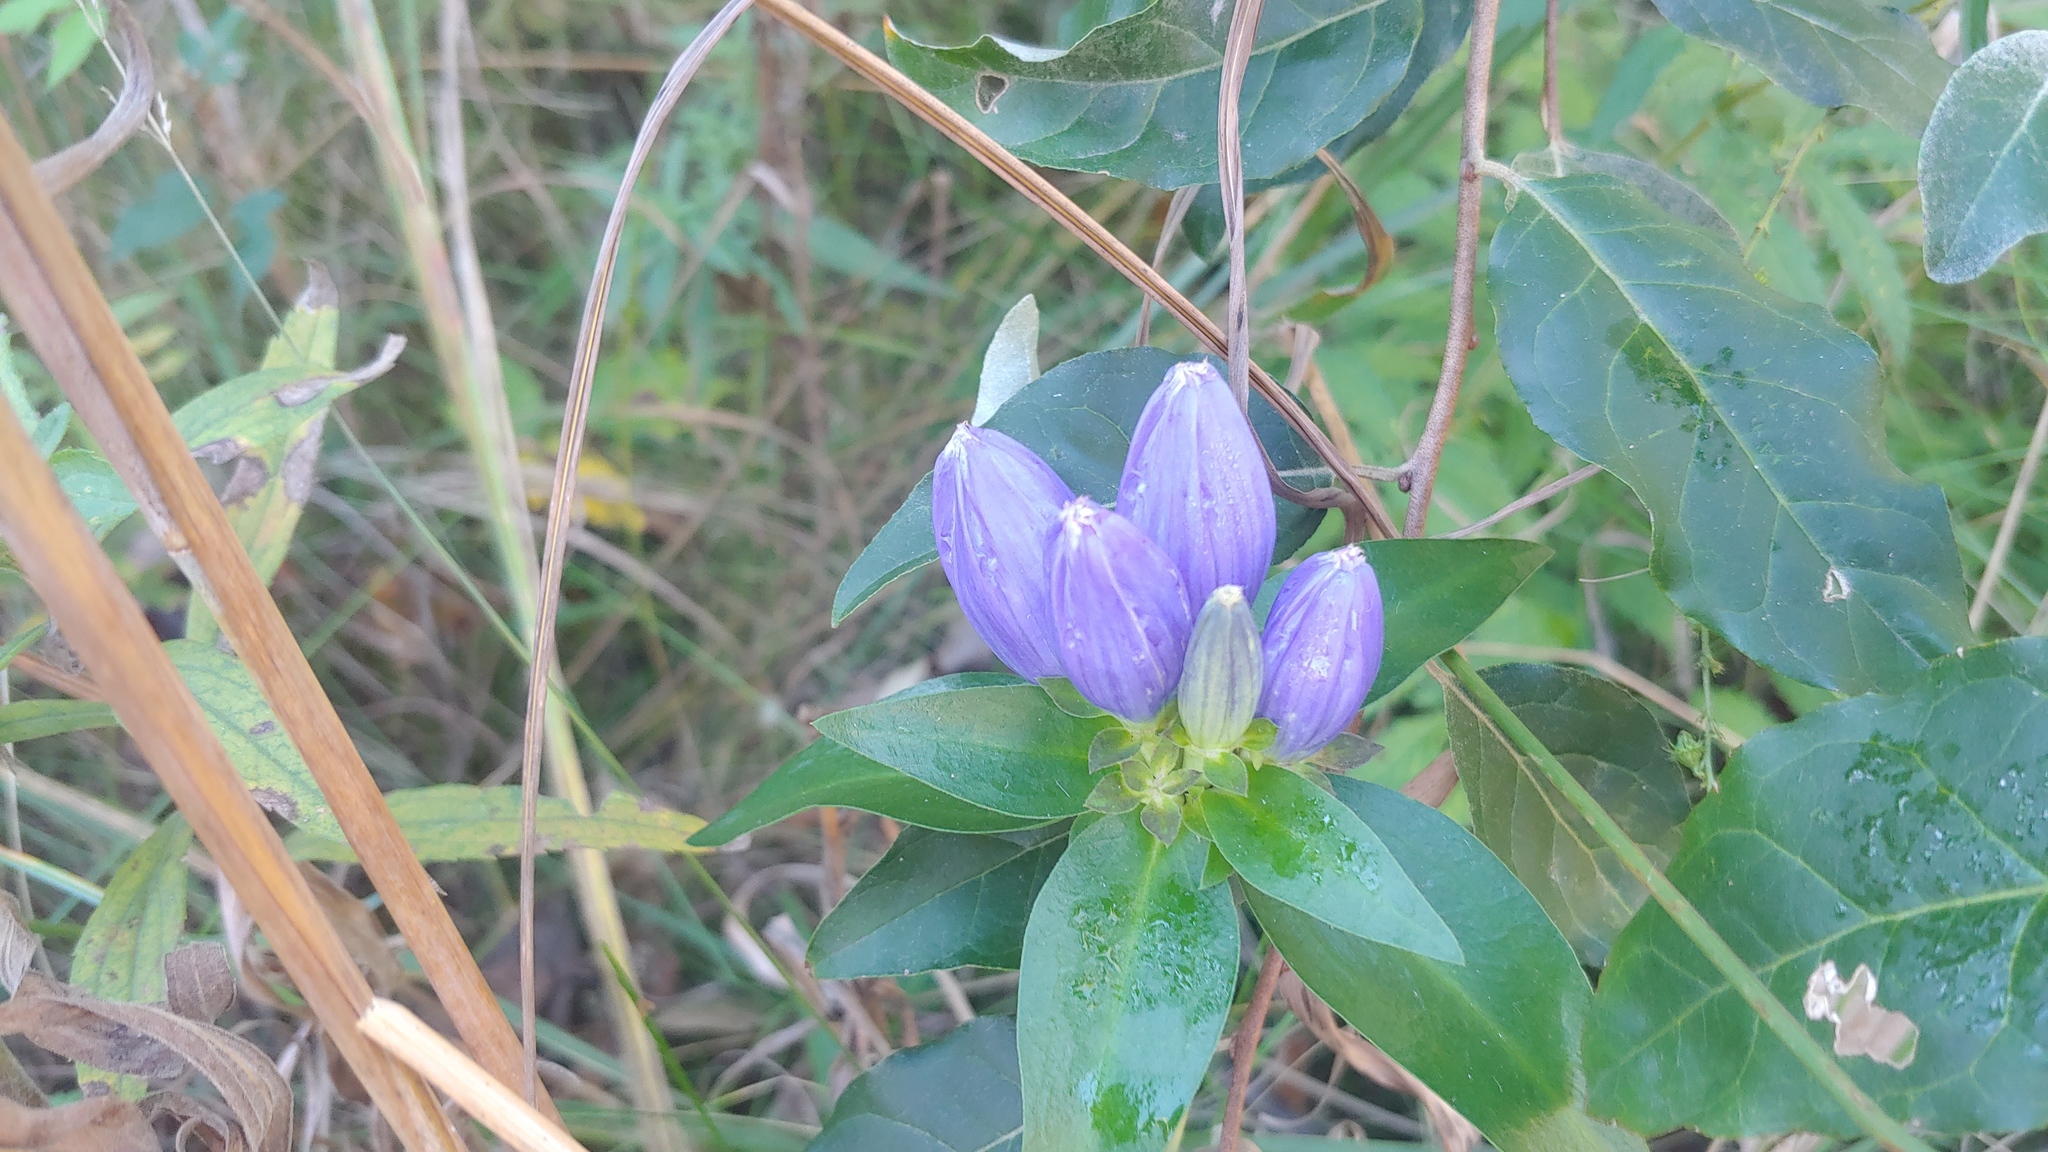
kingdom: Plantae
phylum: Tracheophyta
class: Magnoliopsida
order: Gentianales
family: Gentianaceae
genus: Gentiana
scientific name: Gentiana andrewsii
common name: Bottle gentian
